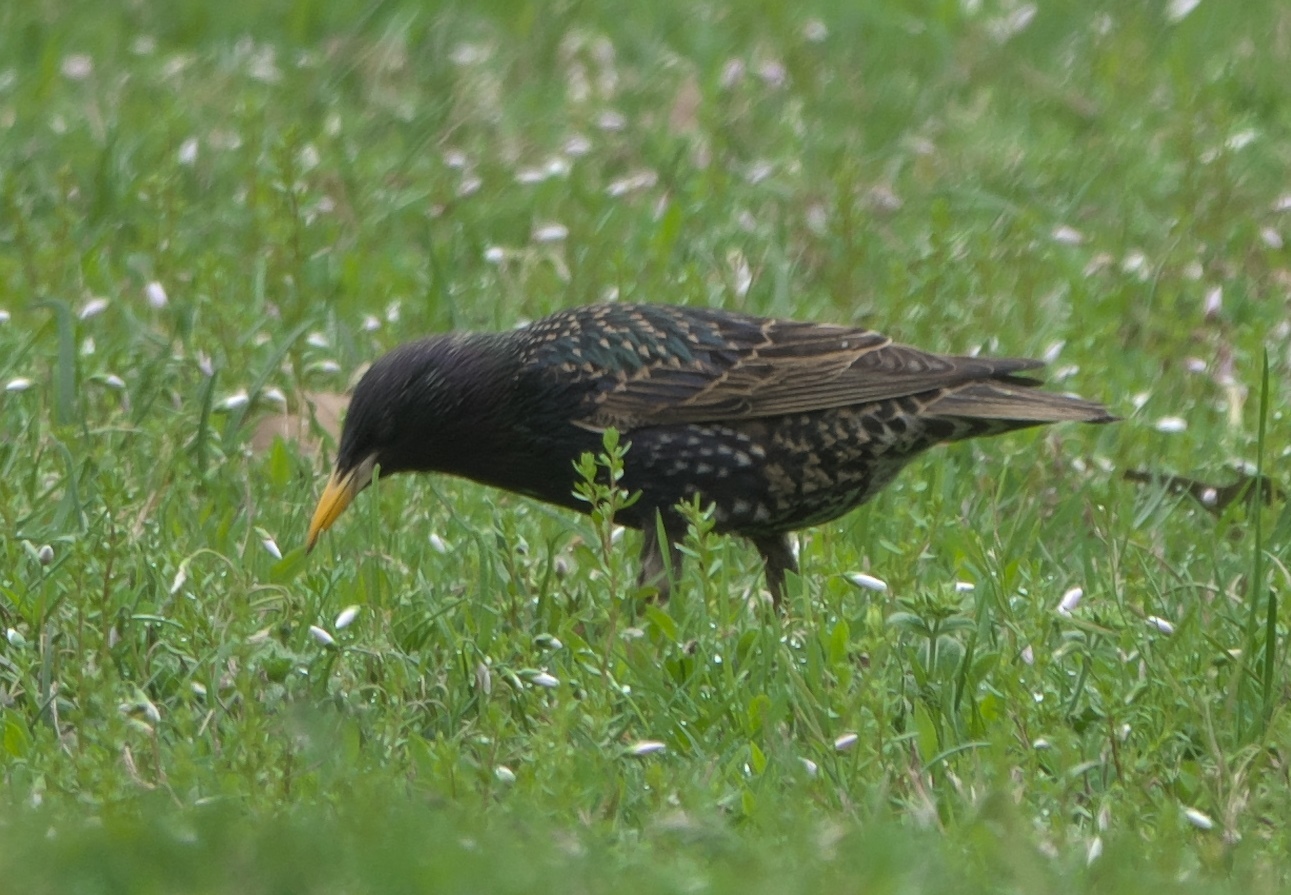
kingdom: Animalia
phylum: Chordata
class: Aves
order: Passeriformes
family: Sturnidae
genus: Sturnus
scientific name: Sturnus vulgaris
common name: Common starling
